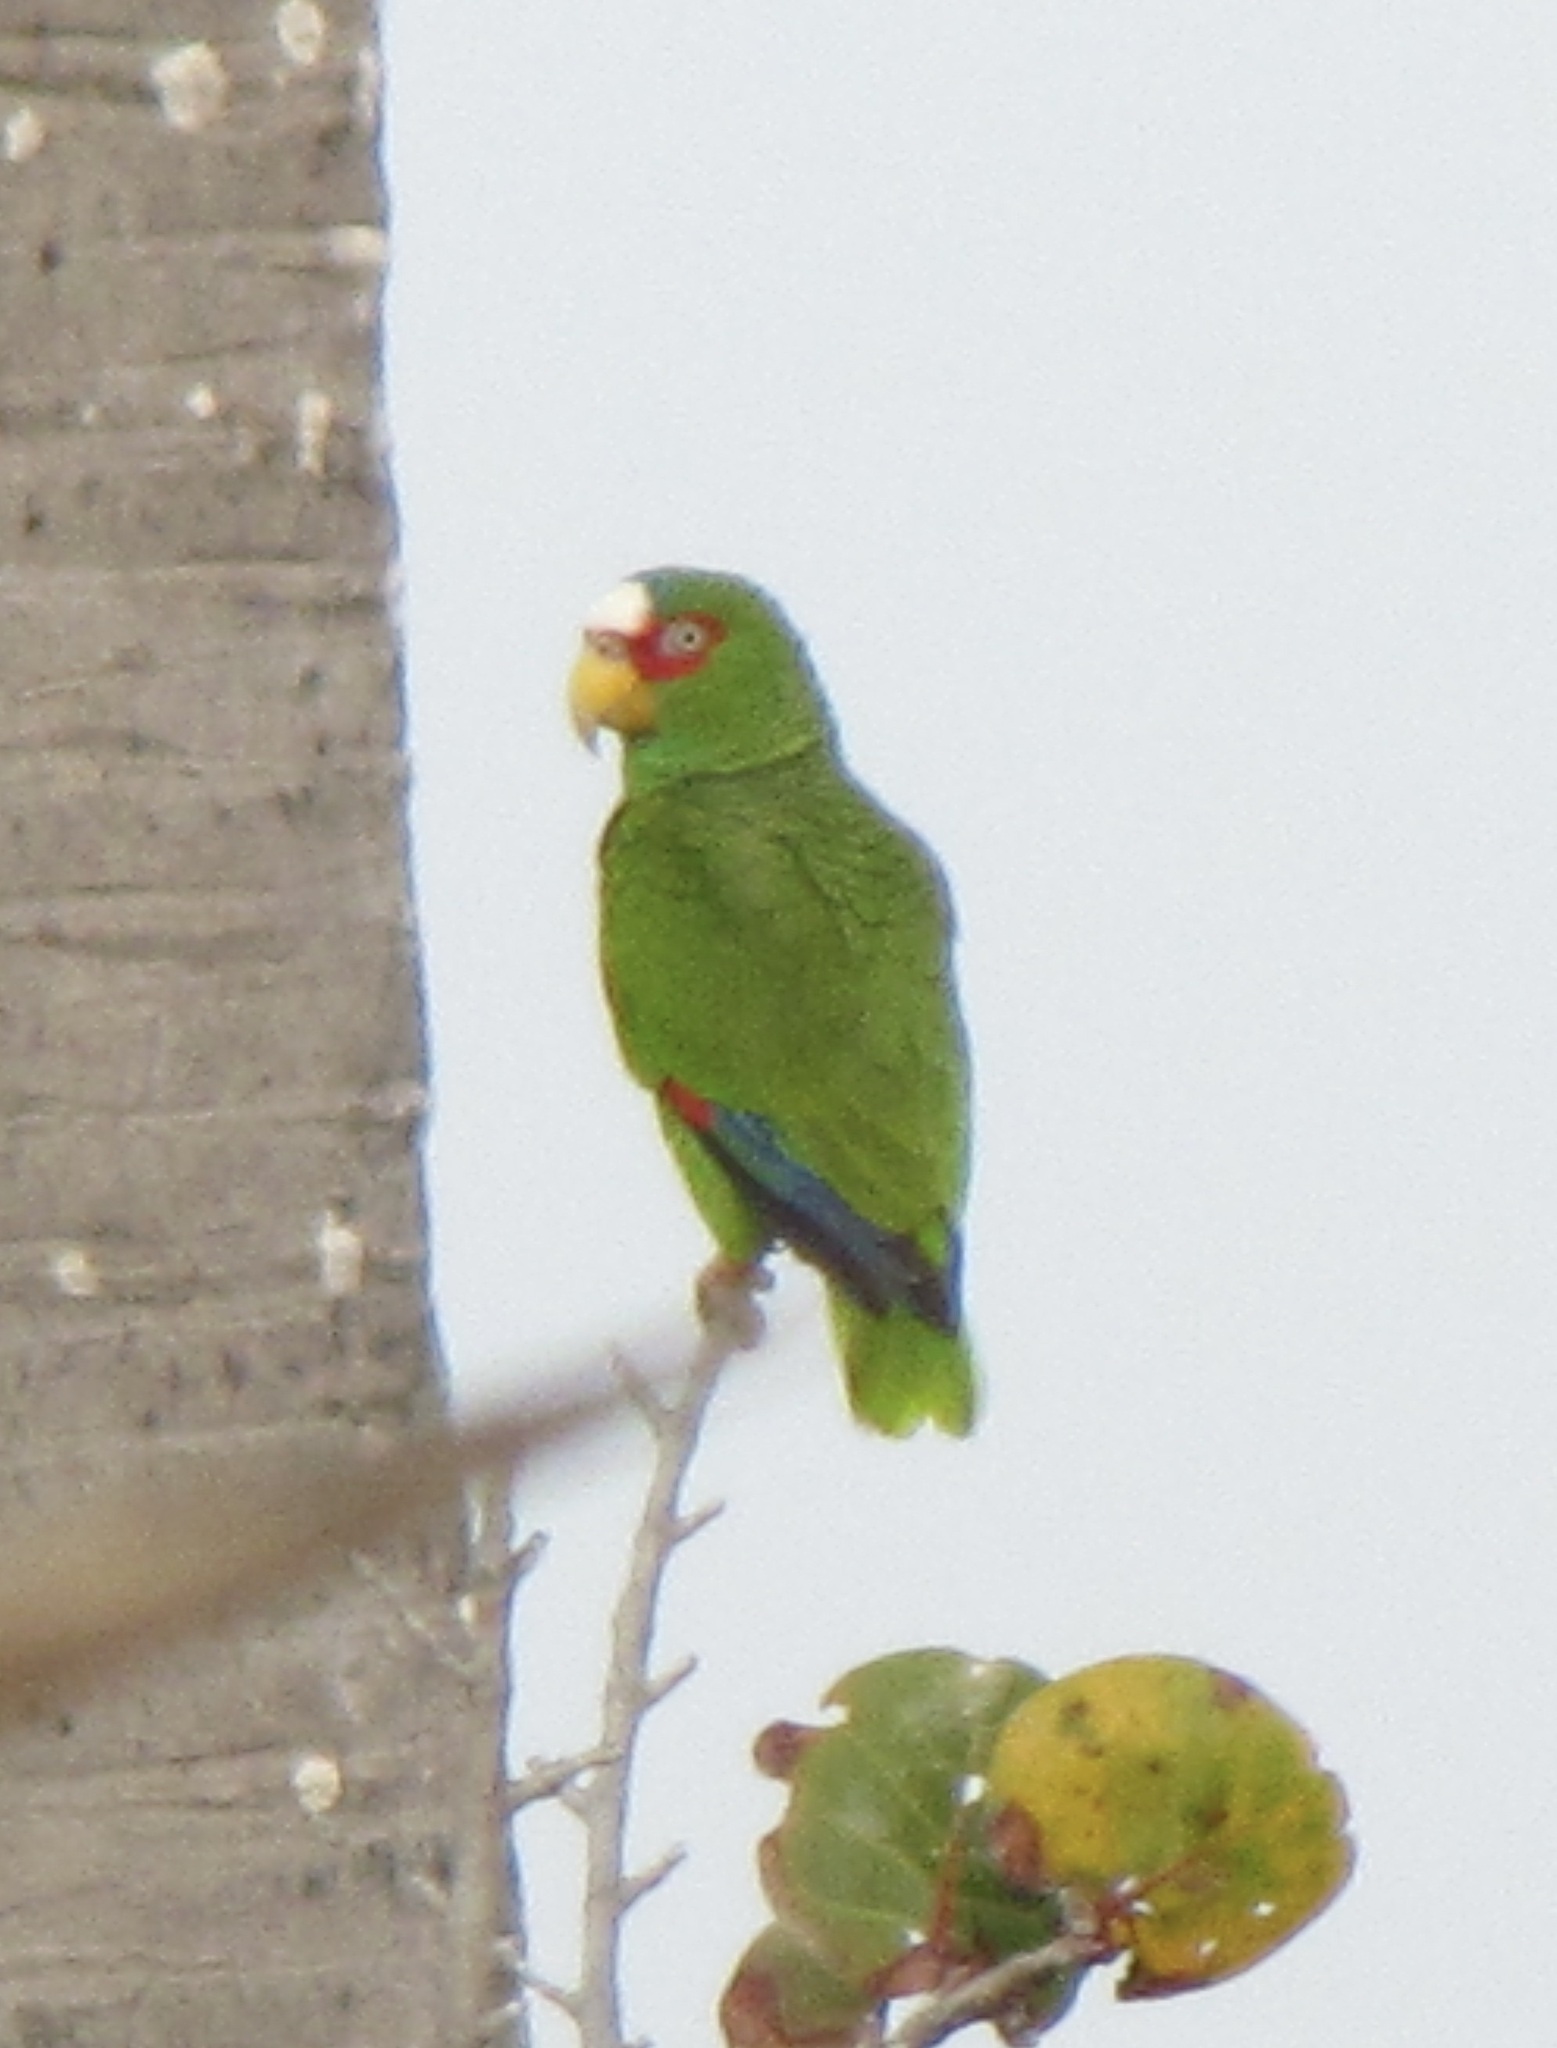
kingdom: Animalia
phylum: Chordata
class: Aves
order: Psittaciformes
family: Psittacidae
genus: Amazona
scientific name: Amazona albifrons
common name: White-fronted amazon
